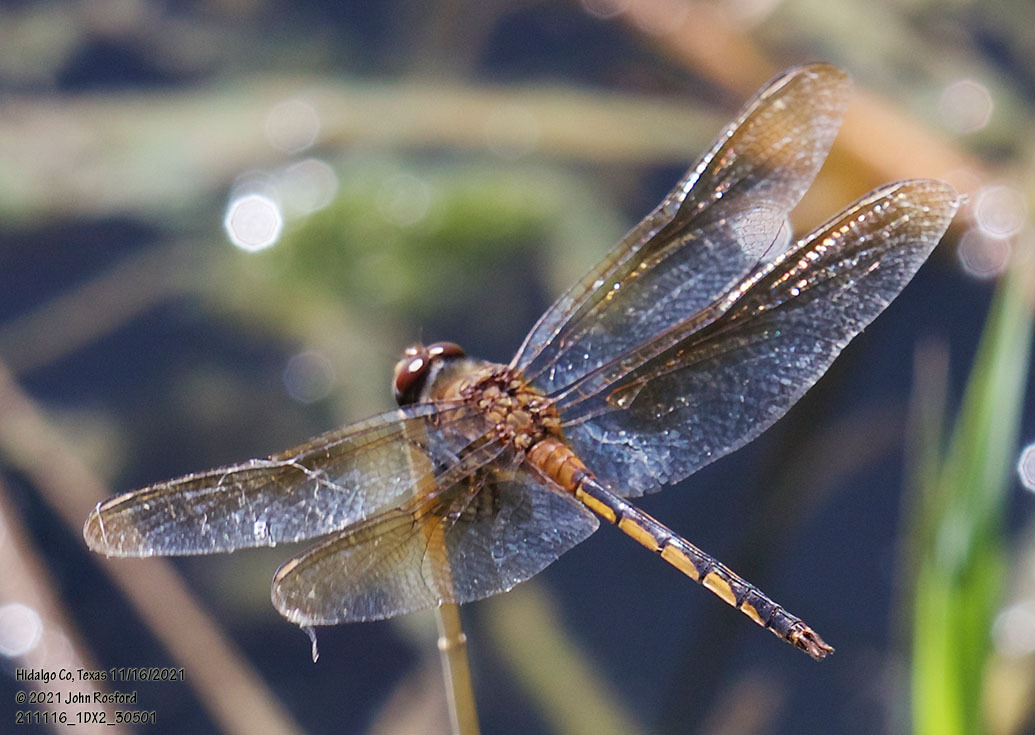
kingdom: Animalia
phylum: Arthropoda
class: Insecta
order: Odonata
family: Libellulidae
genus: Brachymesia
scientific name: Brachymesia herbida
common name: Tawny pennant
